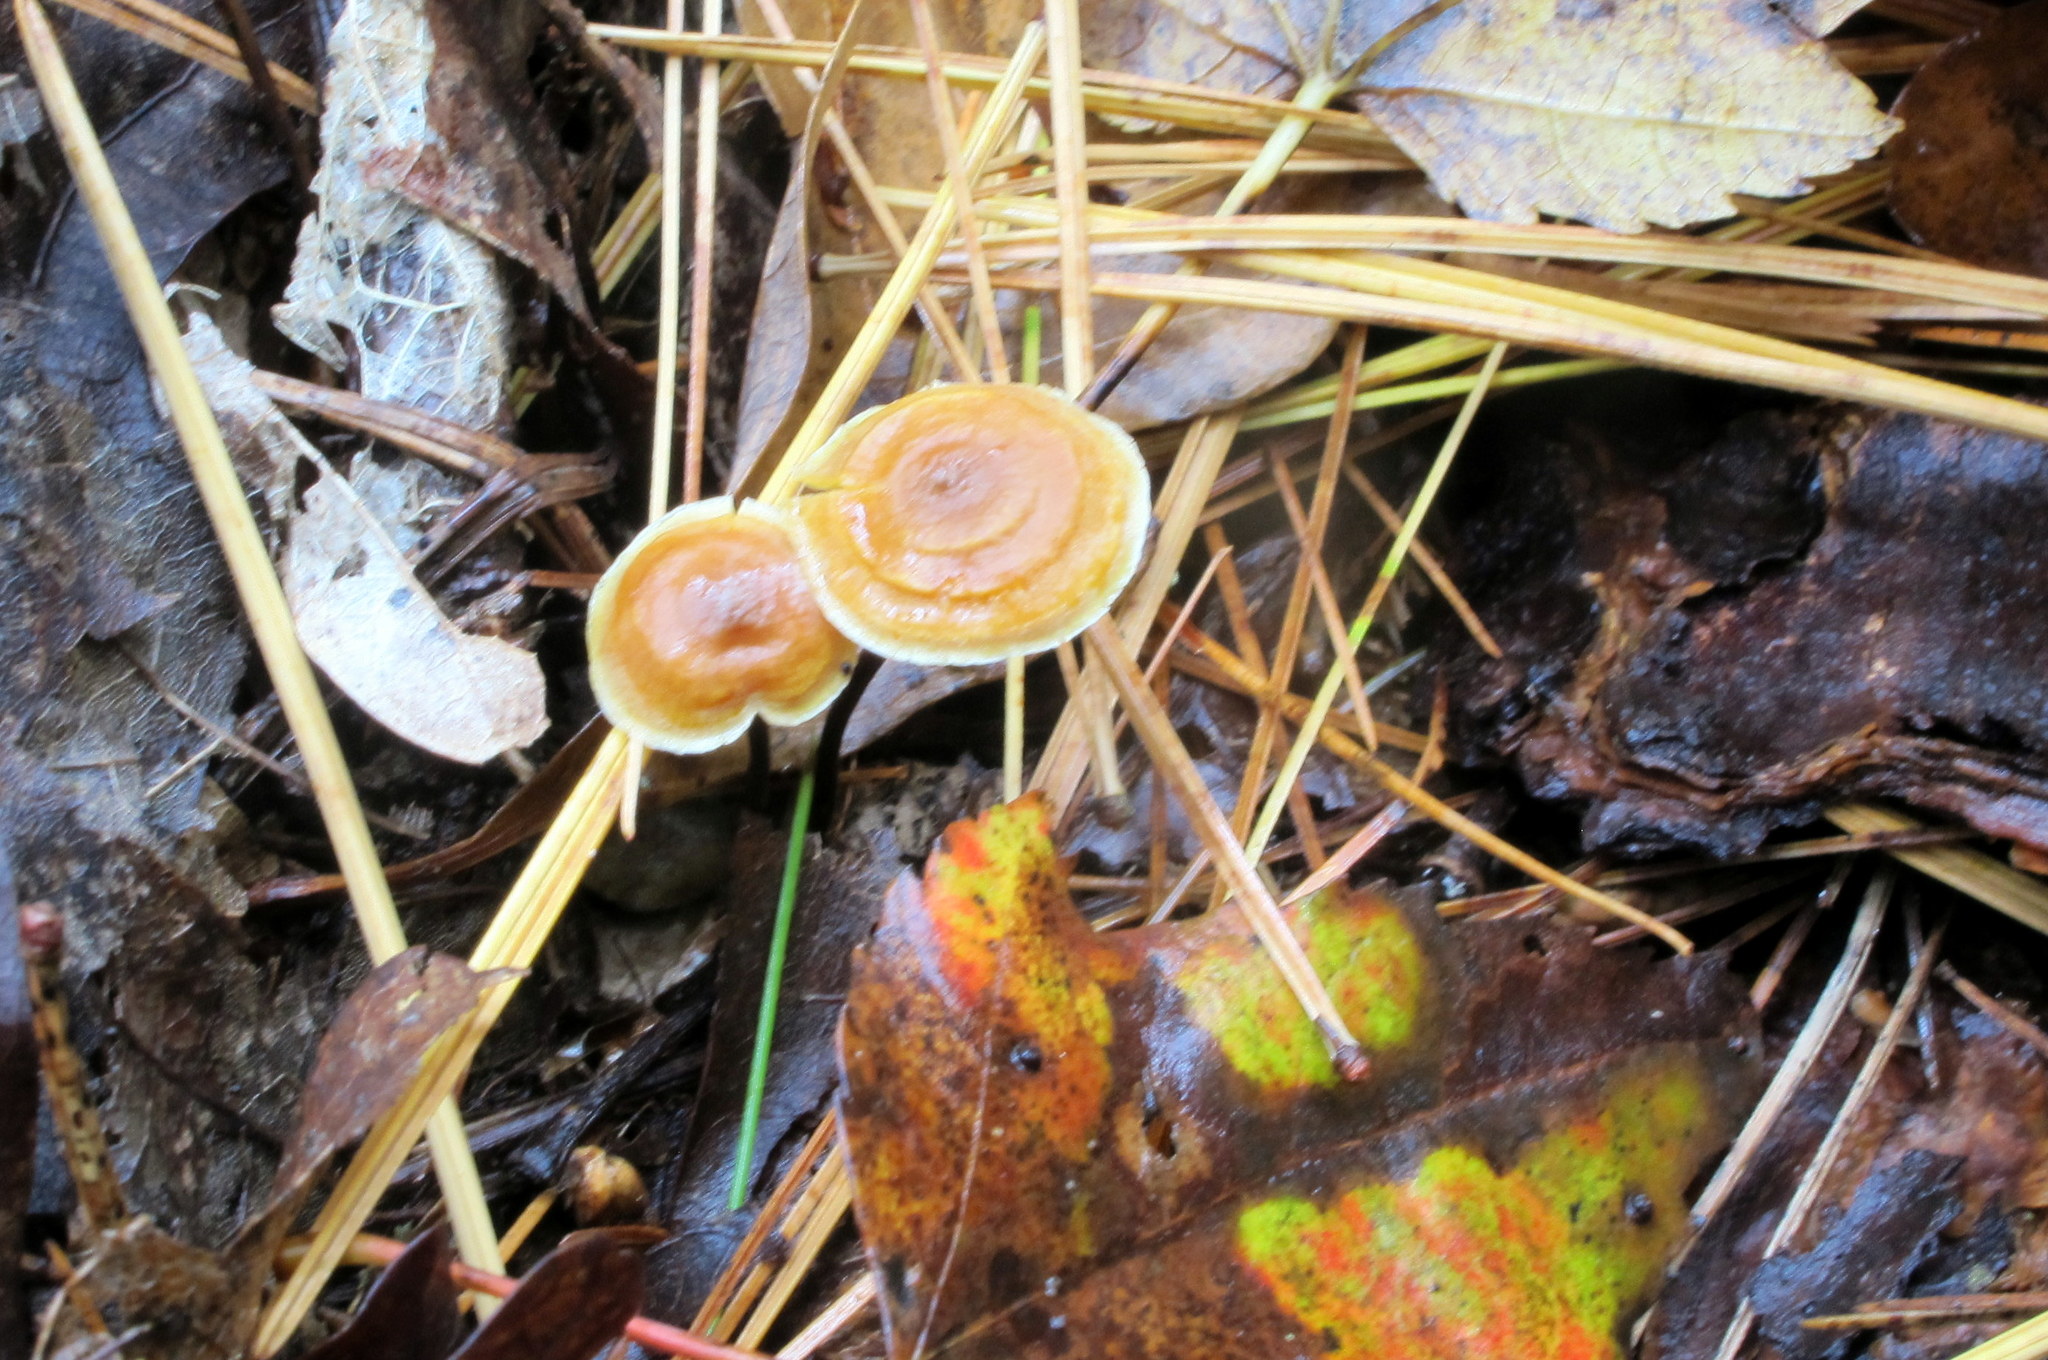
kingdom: Fungi
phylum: Basidiomycota
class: Agaricomycetes
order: Agaricales
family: Mycenaceae
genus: Xeromphalina
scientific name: Xeromphalina cauticinalis
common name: Pinelitter gingertail
